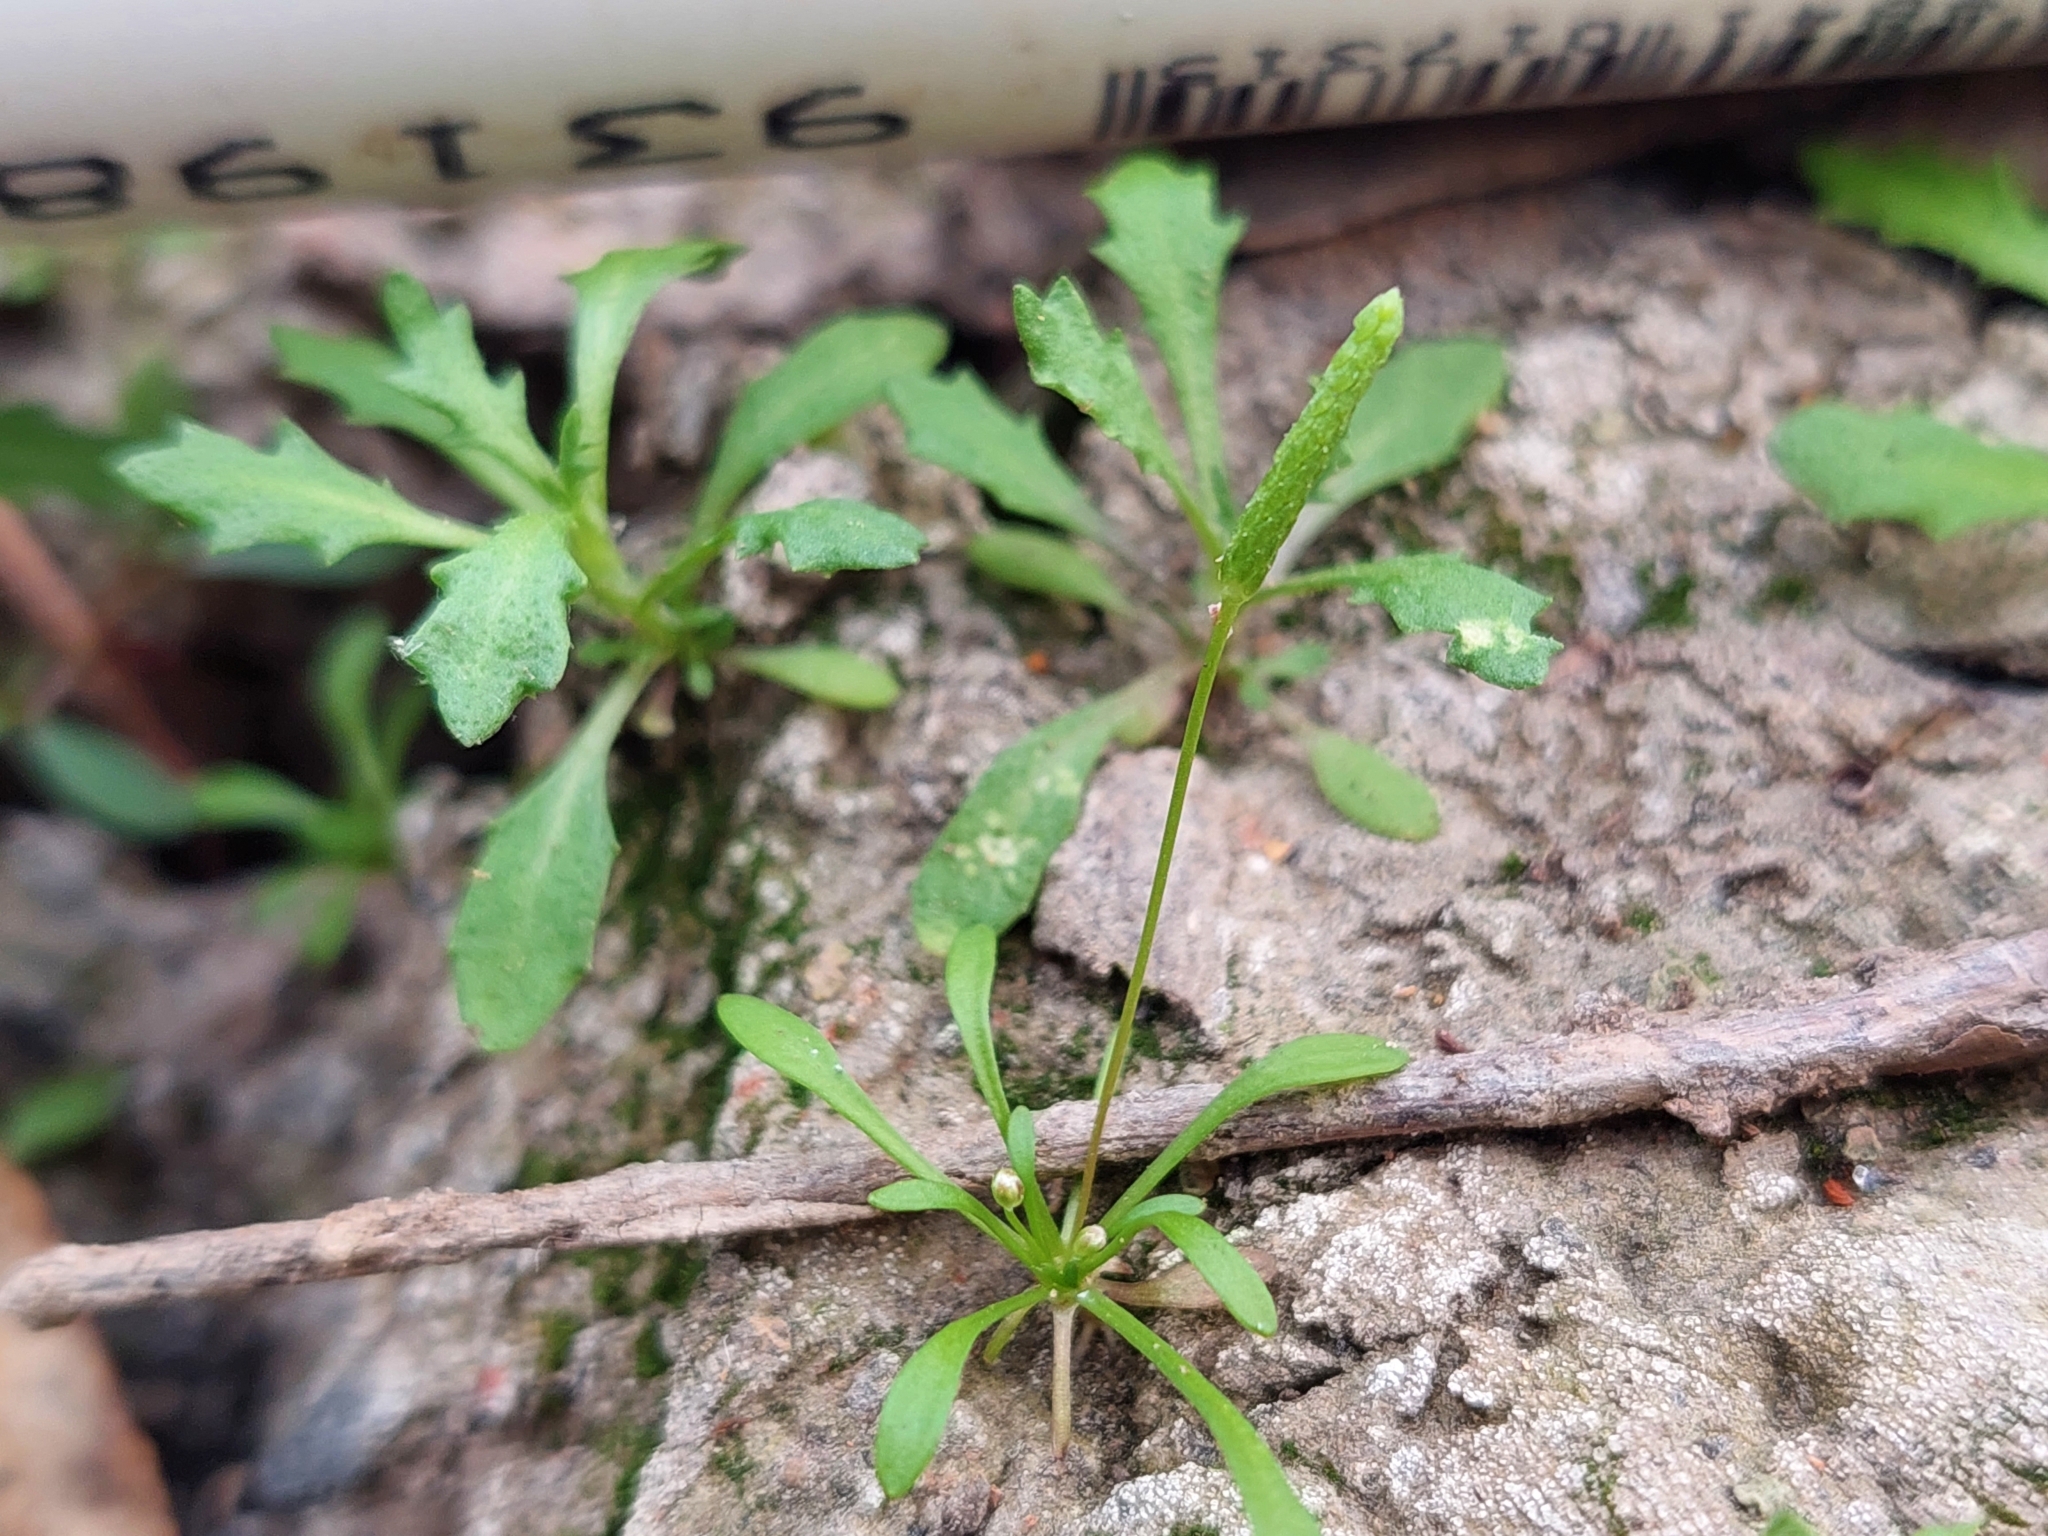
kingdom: Plantae
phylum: Tracheophyta
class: Magnoliopsida
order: Ranunculales
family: Ranunculaceae
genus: Myosurus
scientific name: Myosurus australis
